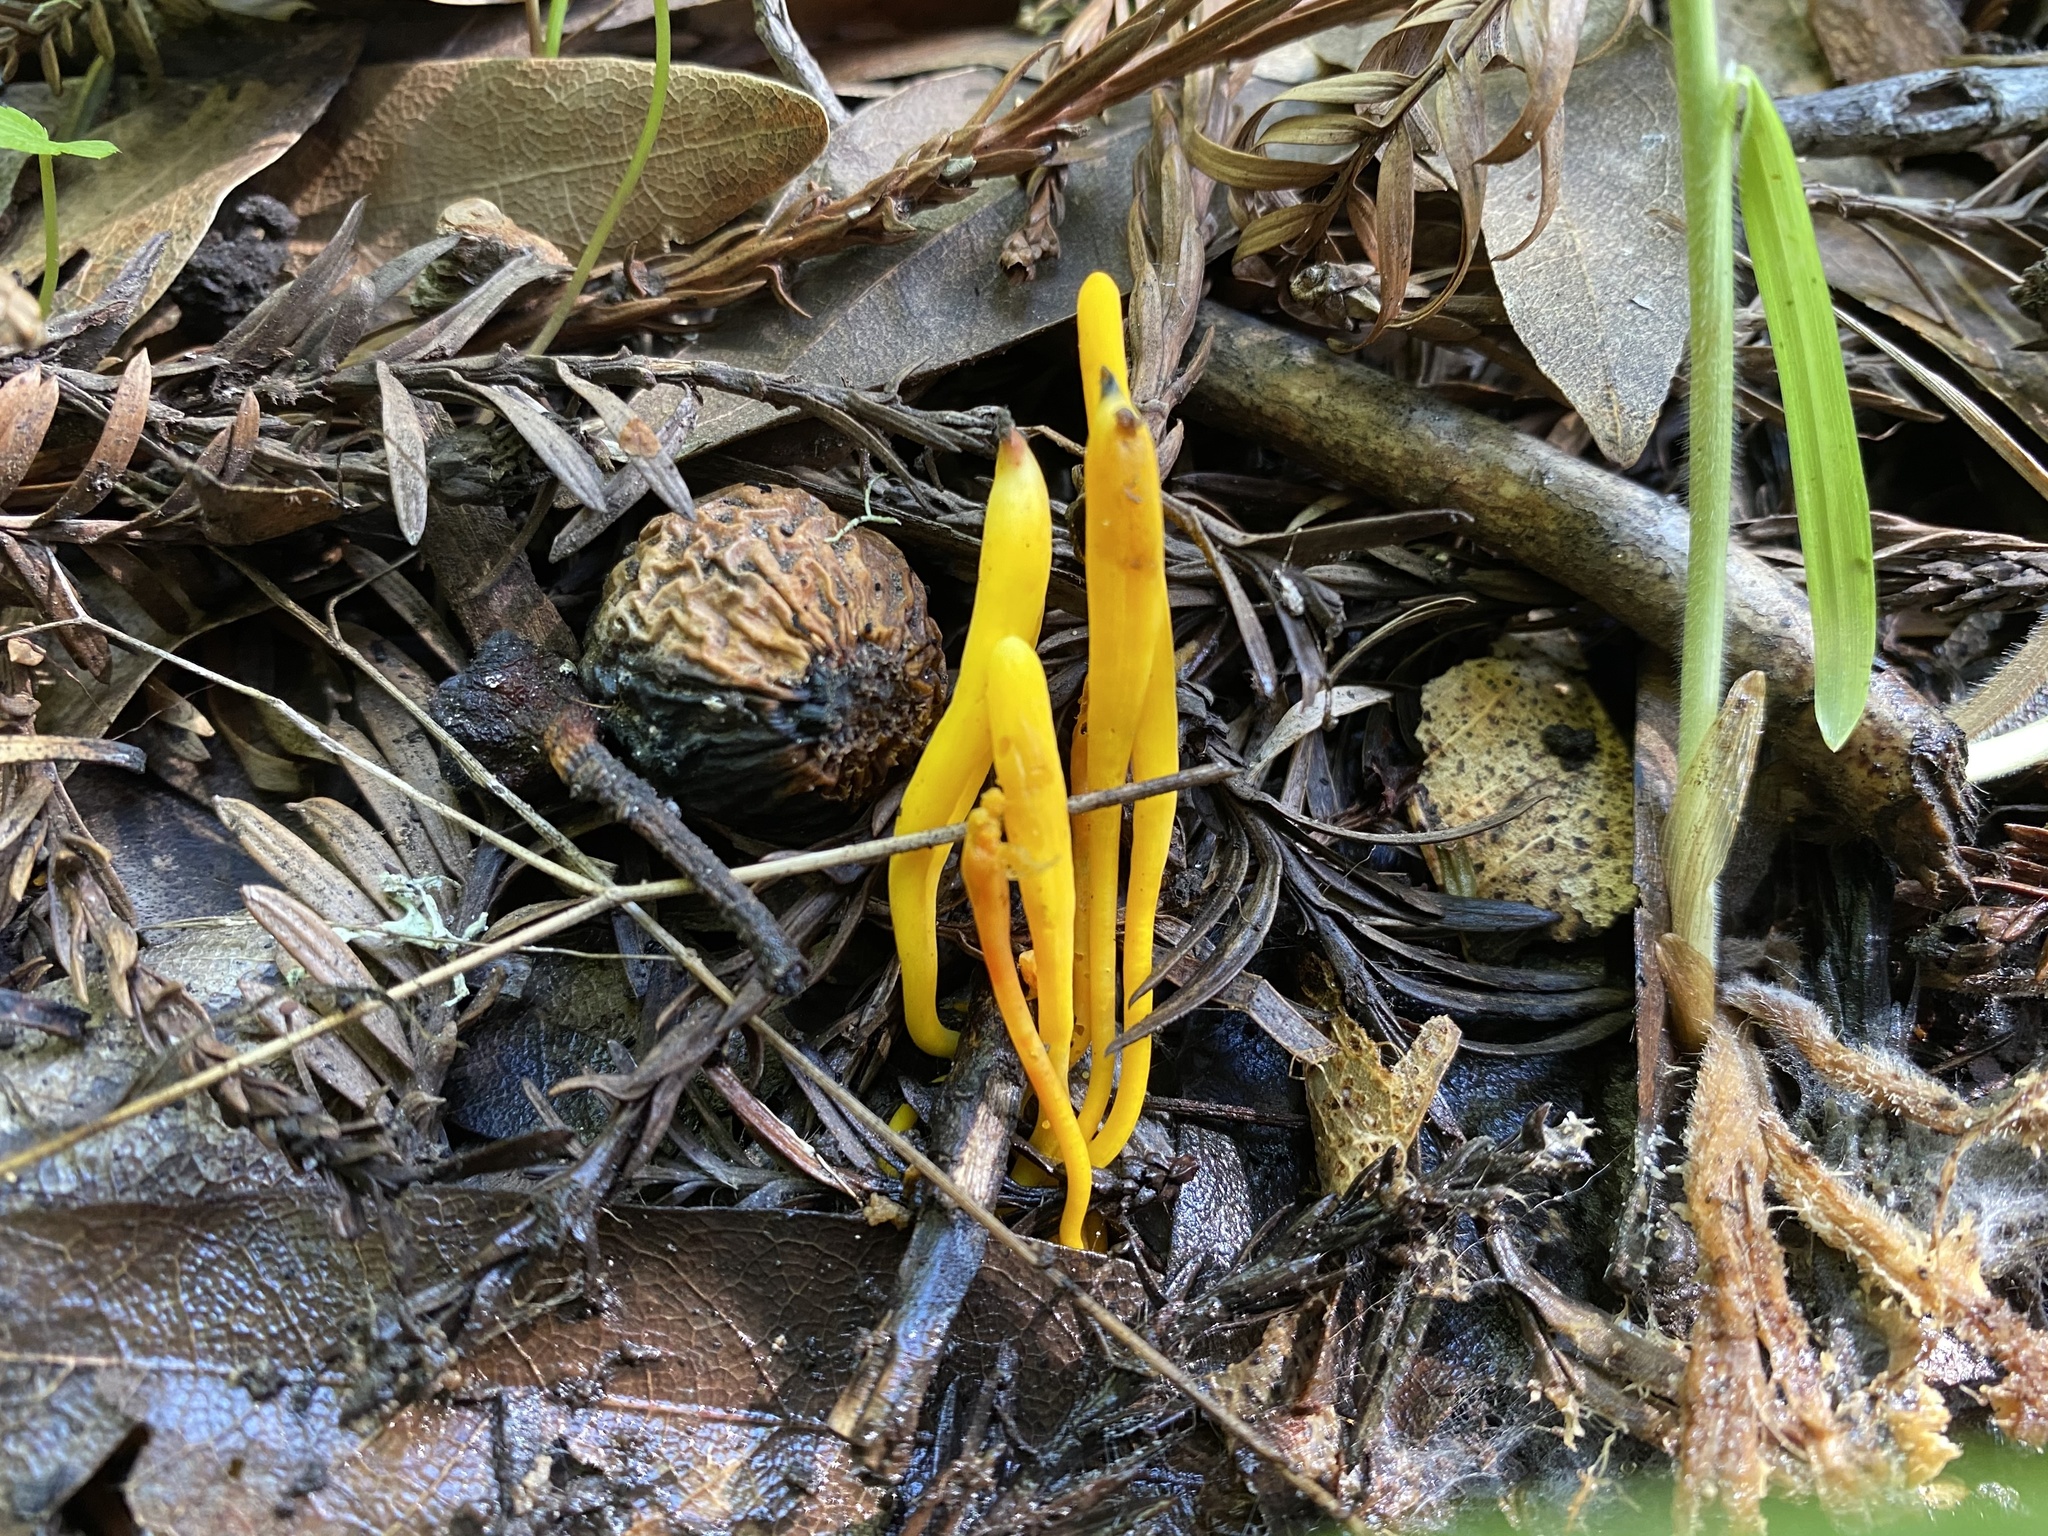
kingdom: Fungi
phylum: Basidiomycota
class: Agaricomycetes
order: Agaricales
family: Clavariaceae
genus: Clavulinopsis
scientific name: Clavulinopsis laeticolor
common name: Handsome club
